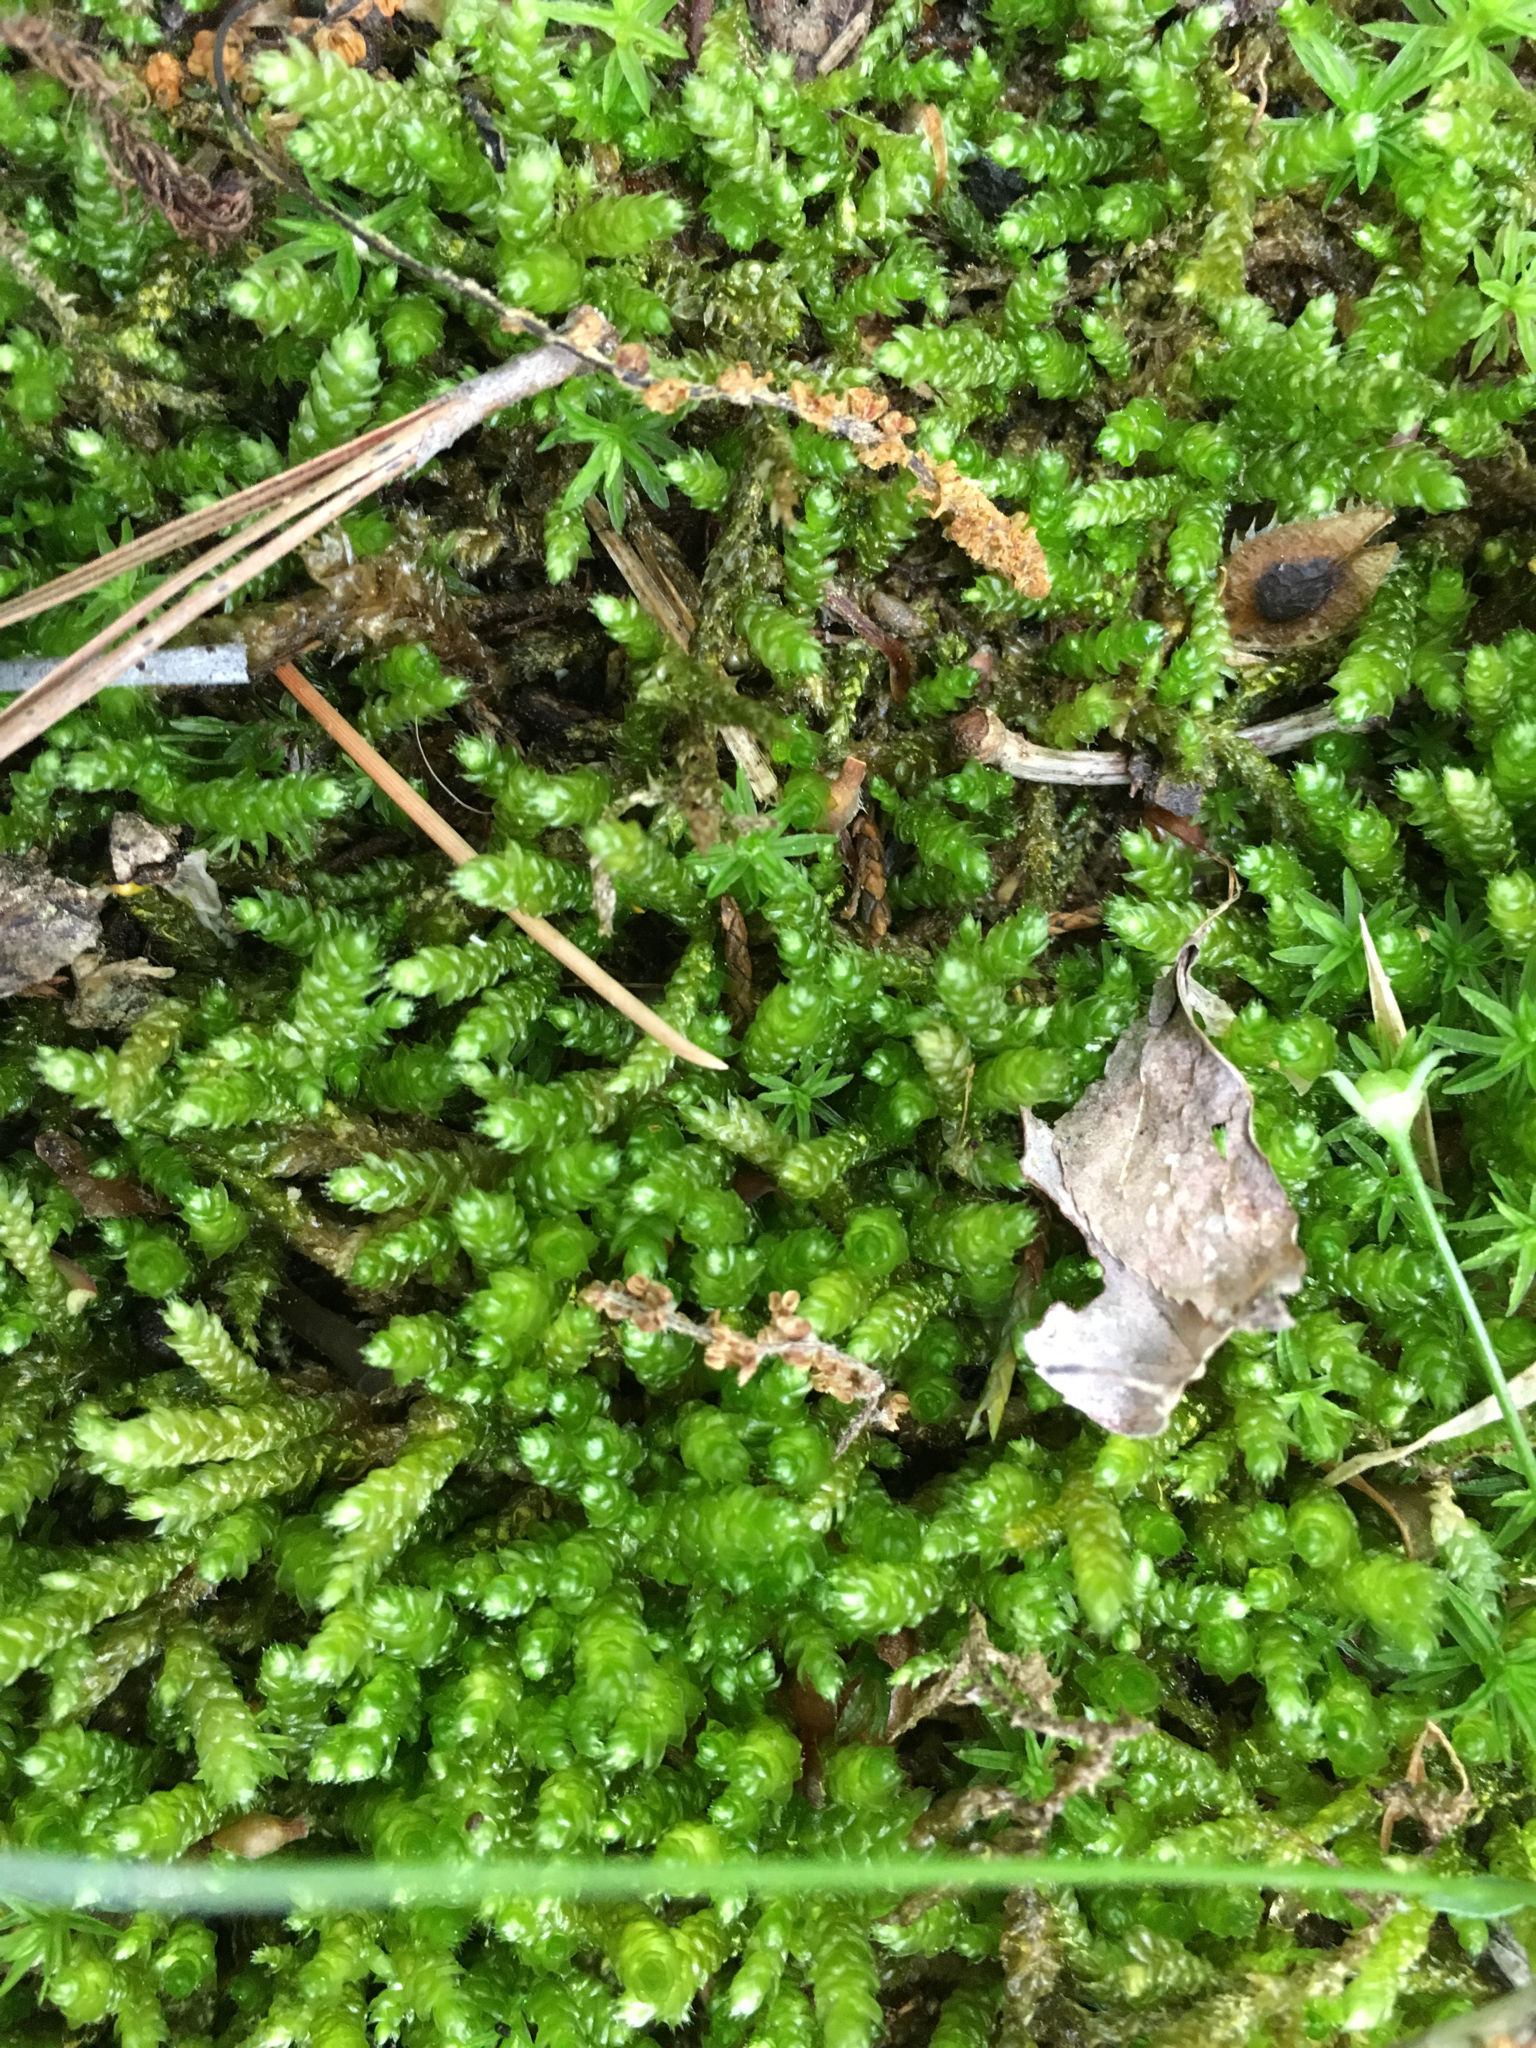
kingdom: Plantae
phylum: Bryophyta
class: Bryopsida
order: Hypnales
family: Brachytheciaceae
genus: Bryoandersonia
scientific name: Bryoandersonia illecebra
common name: Spoon-leaved moss
